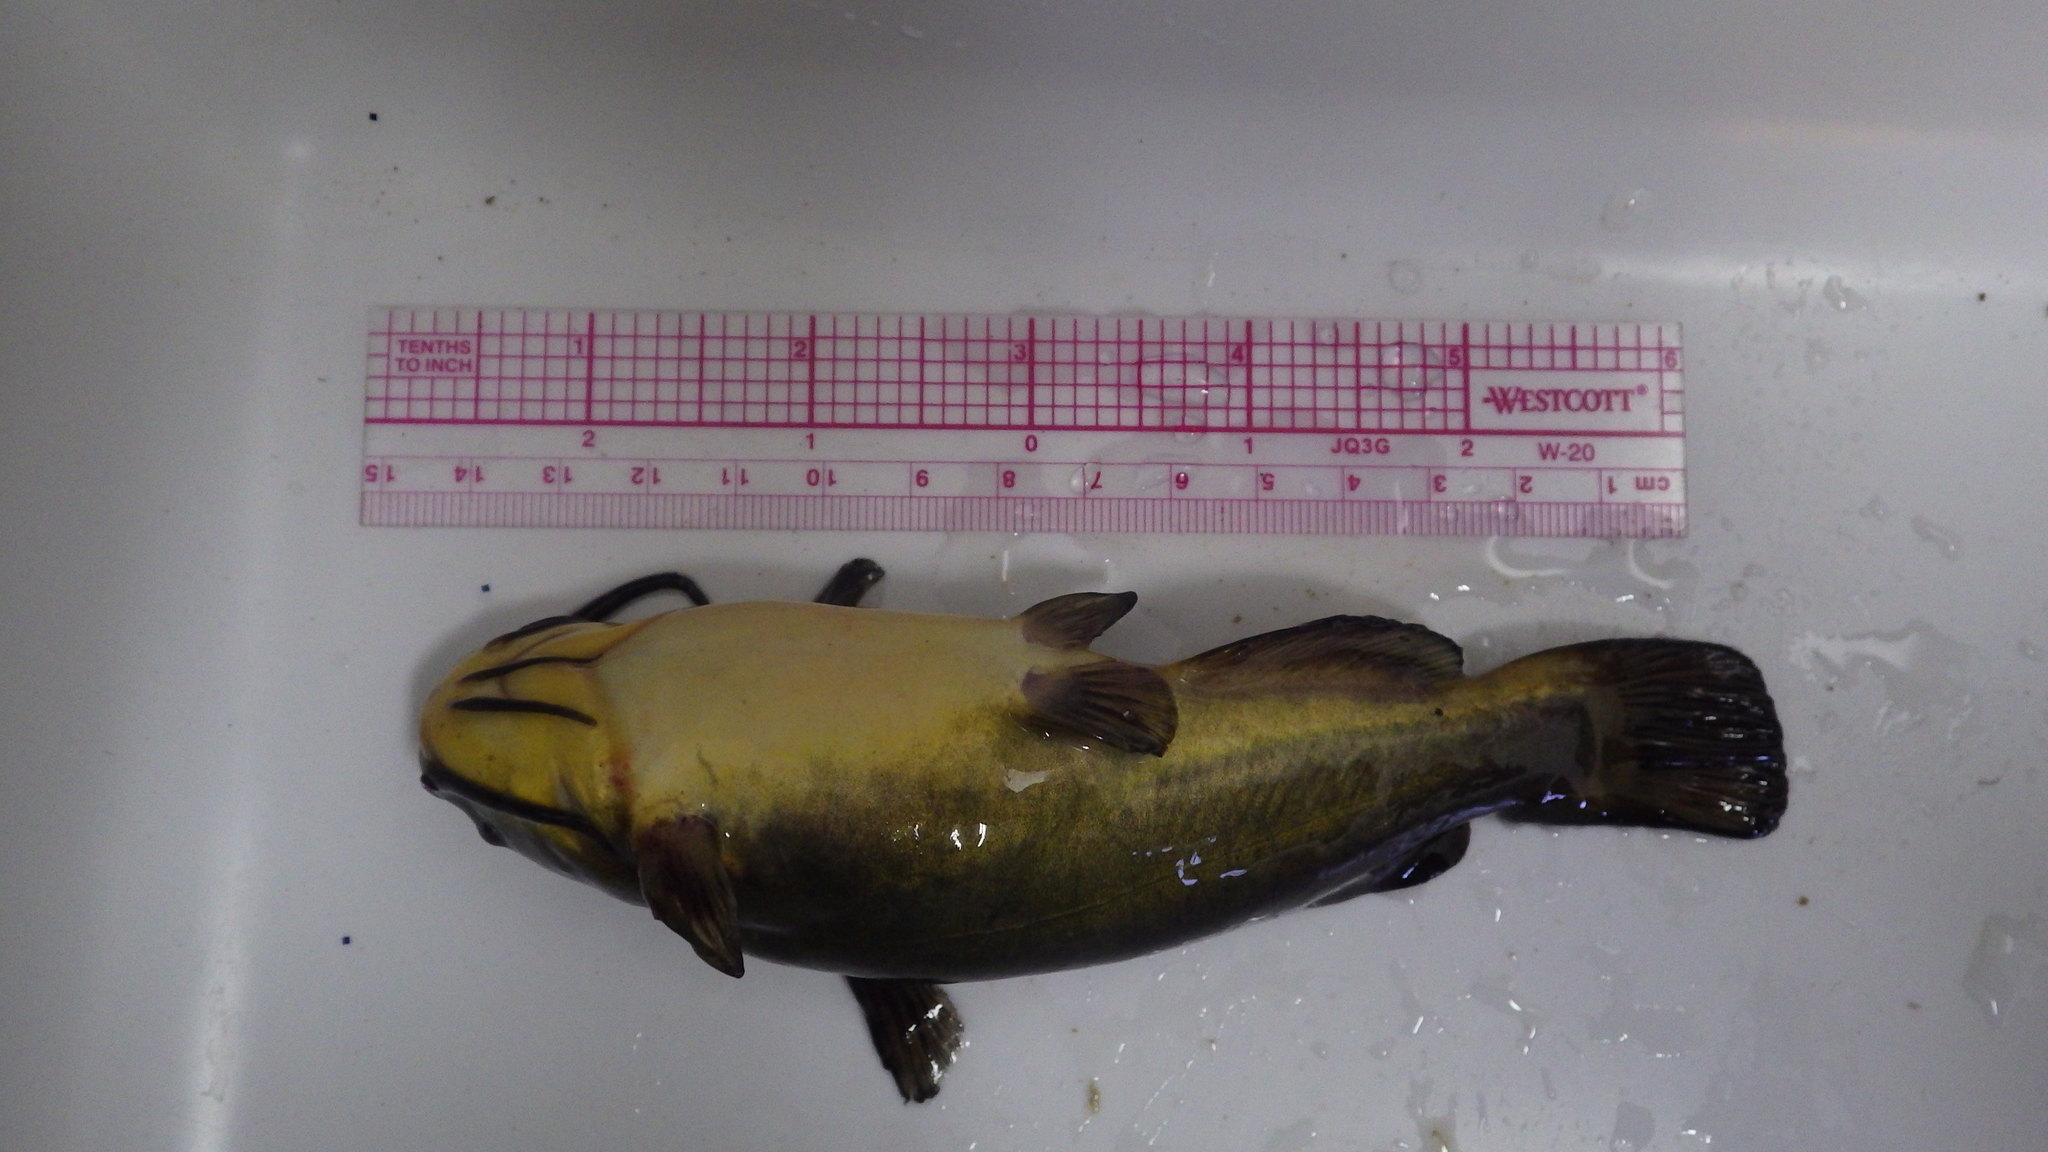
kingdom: Animalia
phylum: Chordata
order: Siluriformes
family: Ictaluridae
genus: Ameiurus
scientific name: Ameiurus melas
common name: Black bullhead
